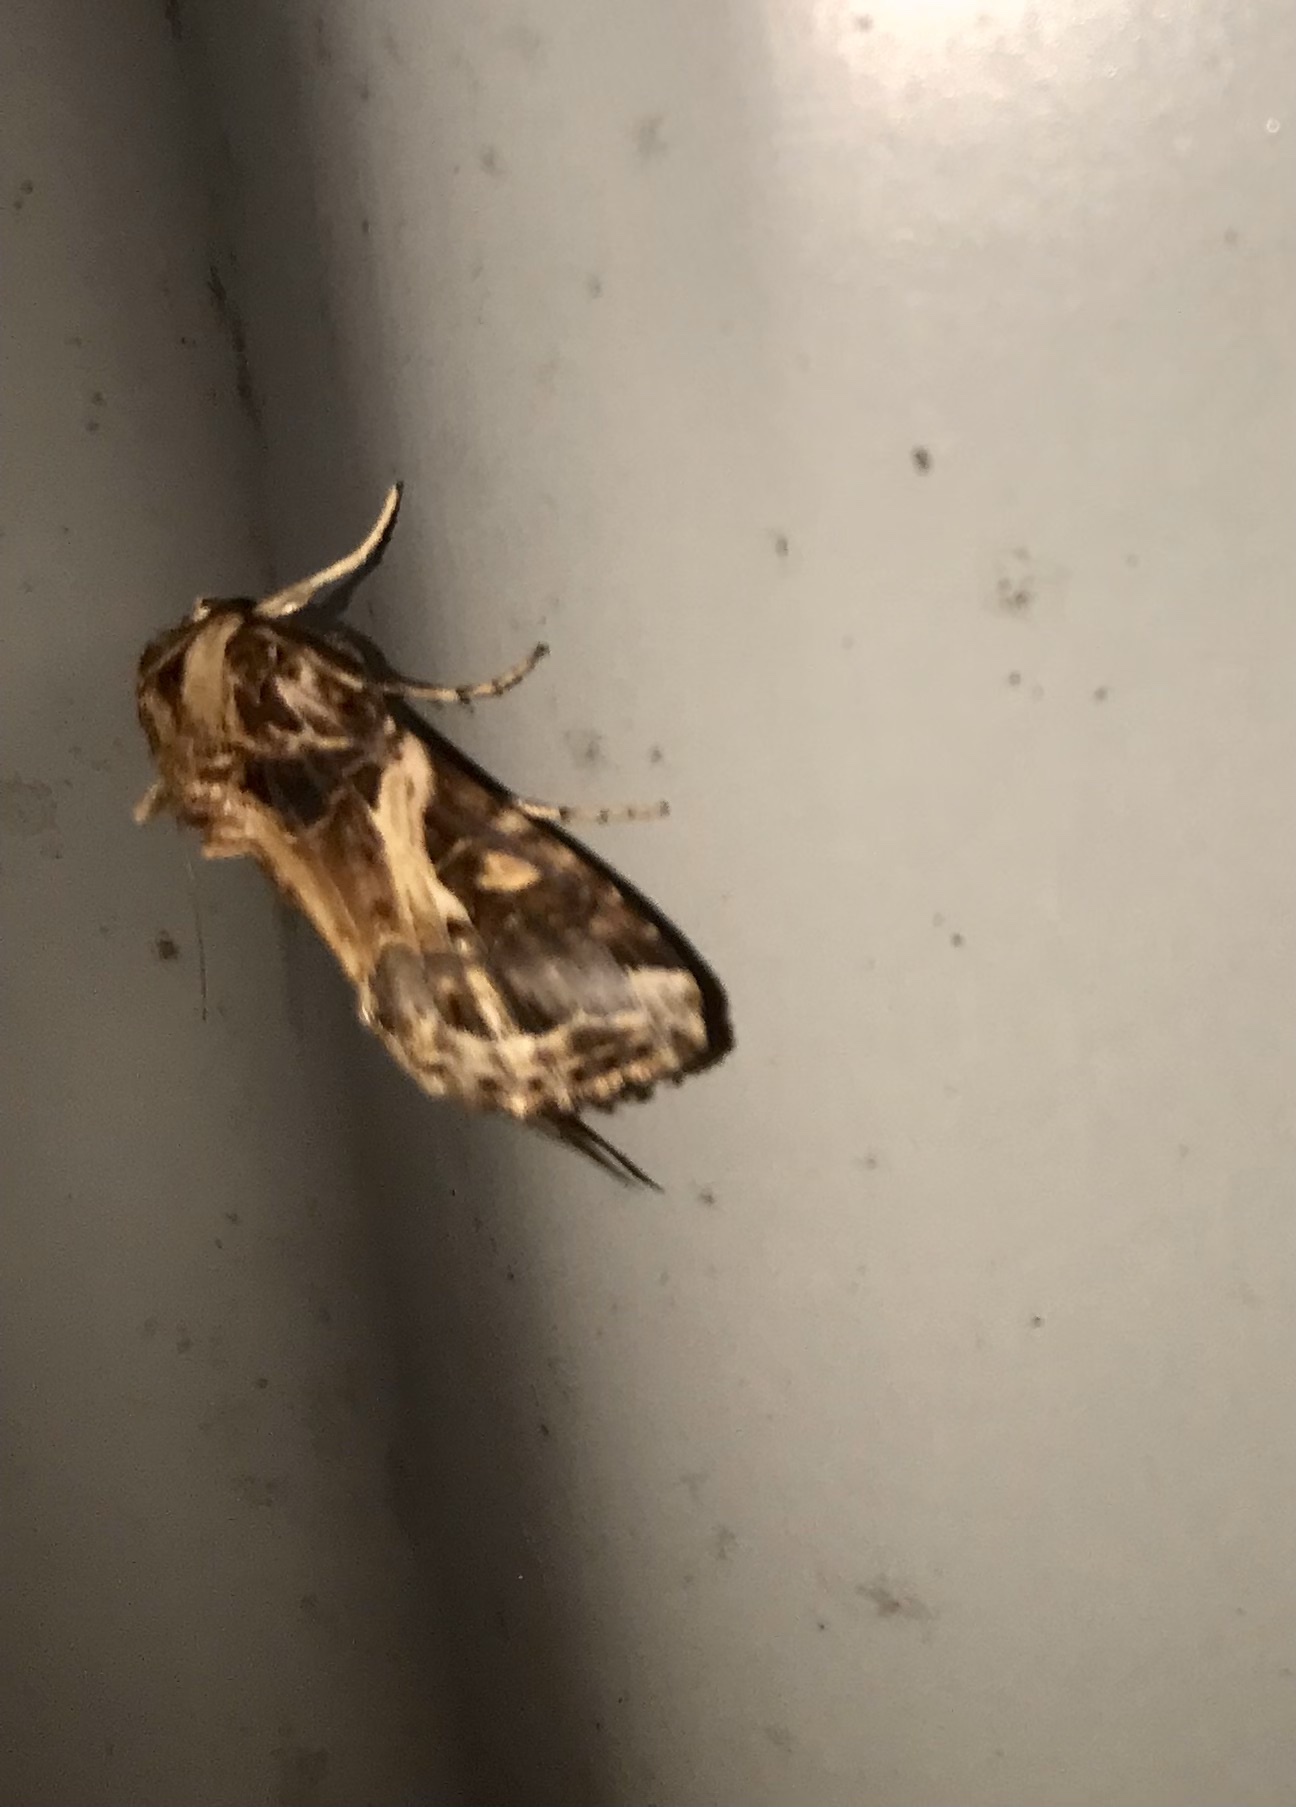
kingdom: Animalia
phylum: Arthropoda
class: Insecta
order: Lepidoptera
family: Noctuidae
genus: Spodoptera
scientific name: Spodoptera litura
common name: Asian cotton leafworm
